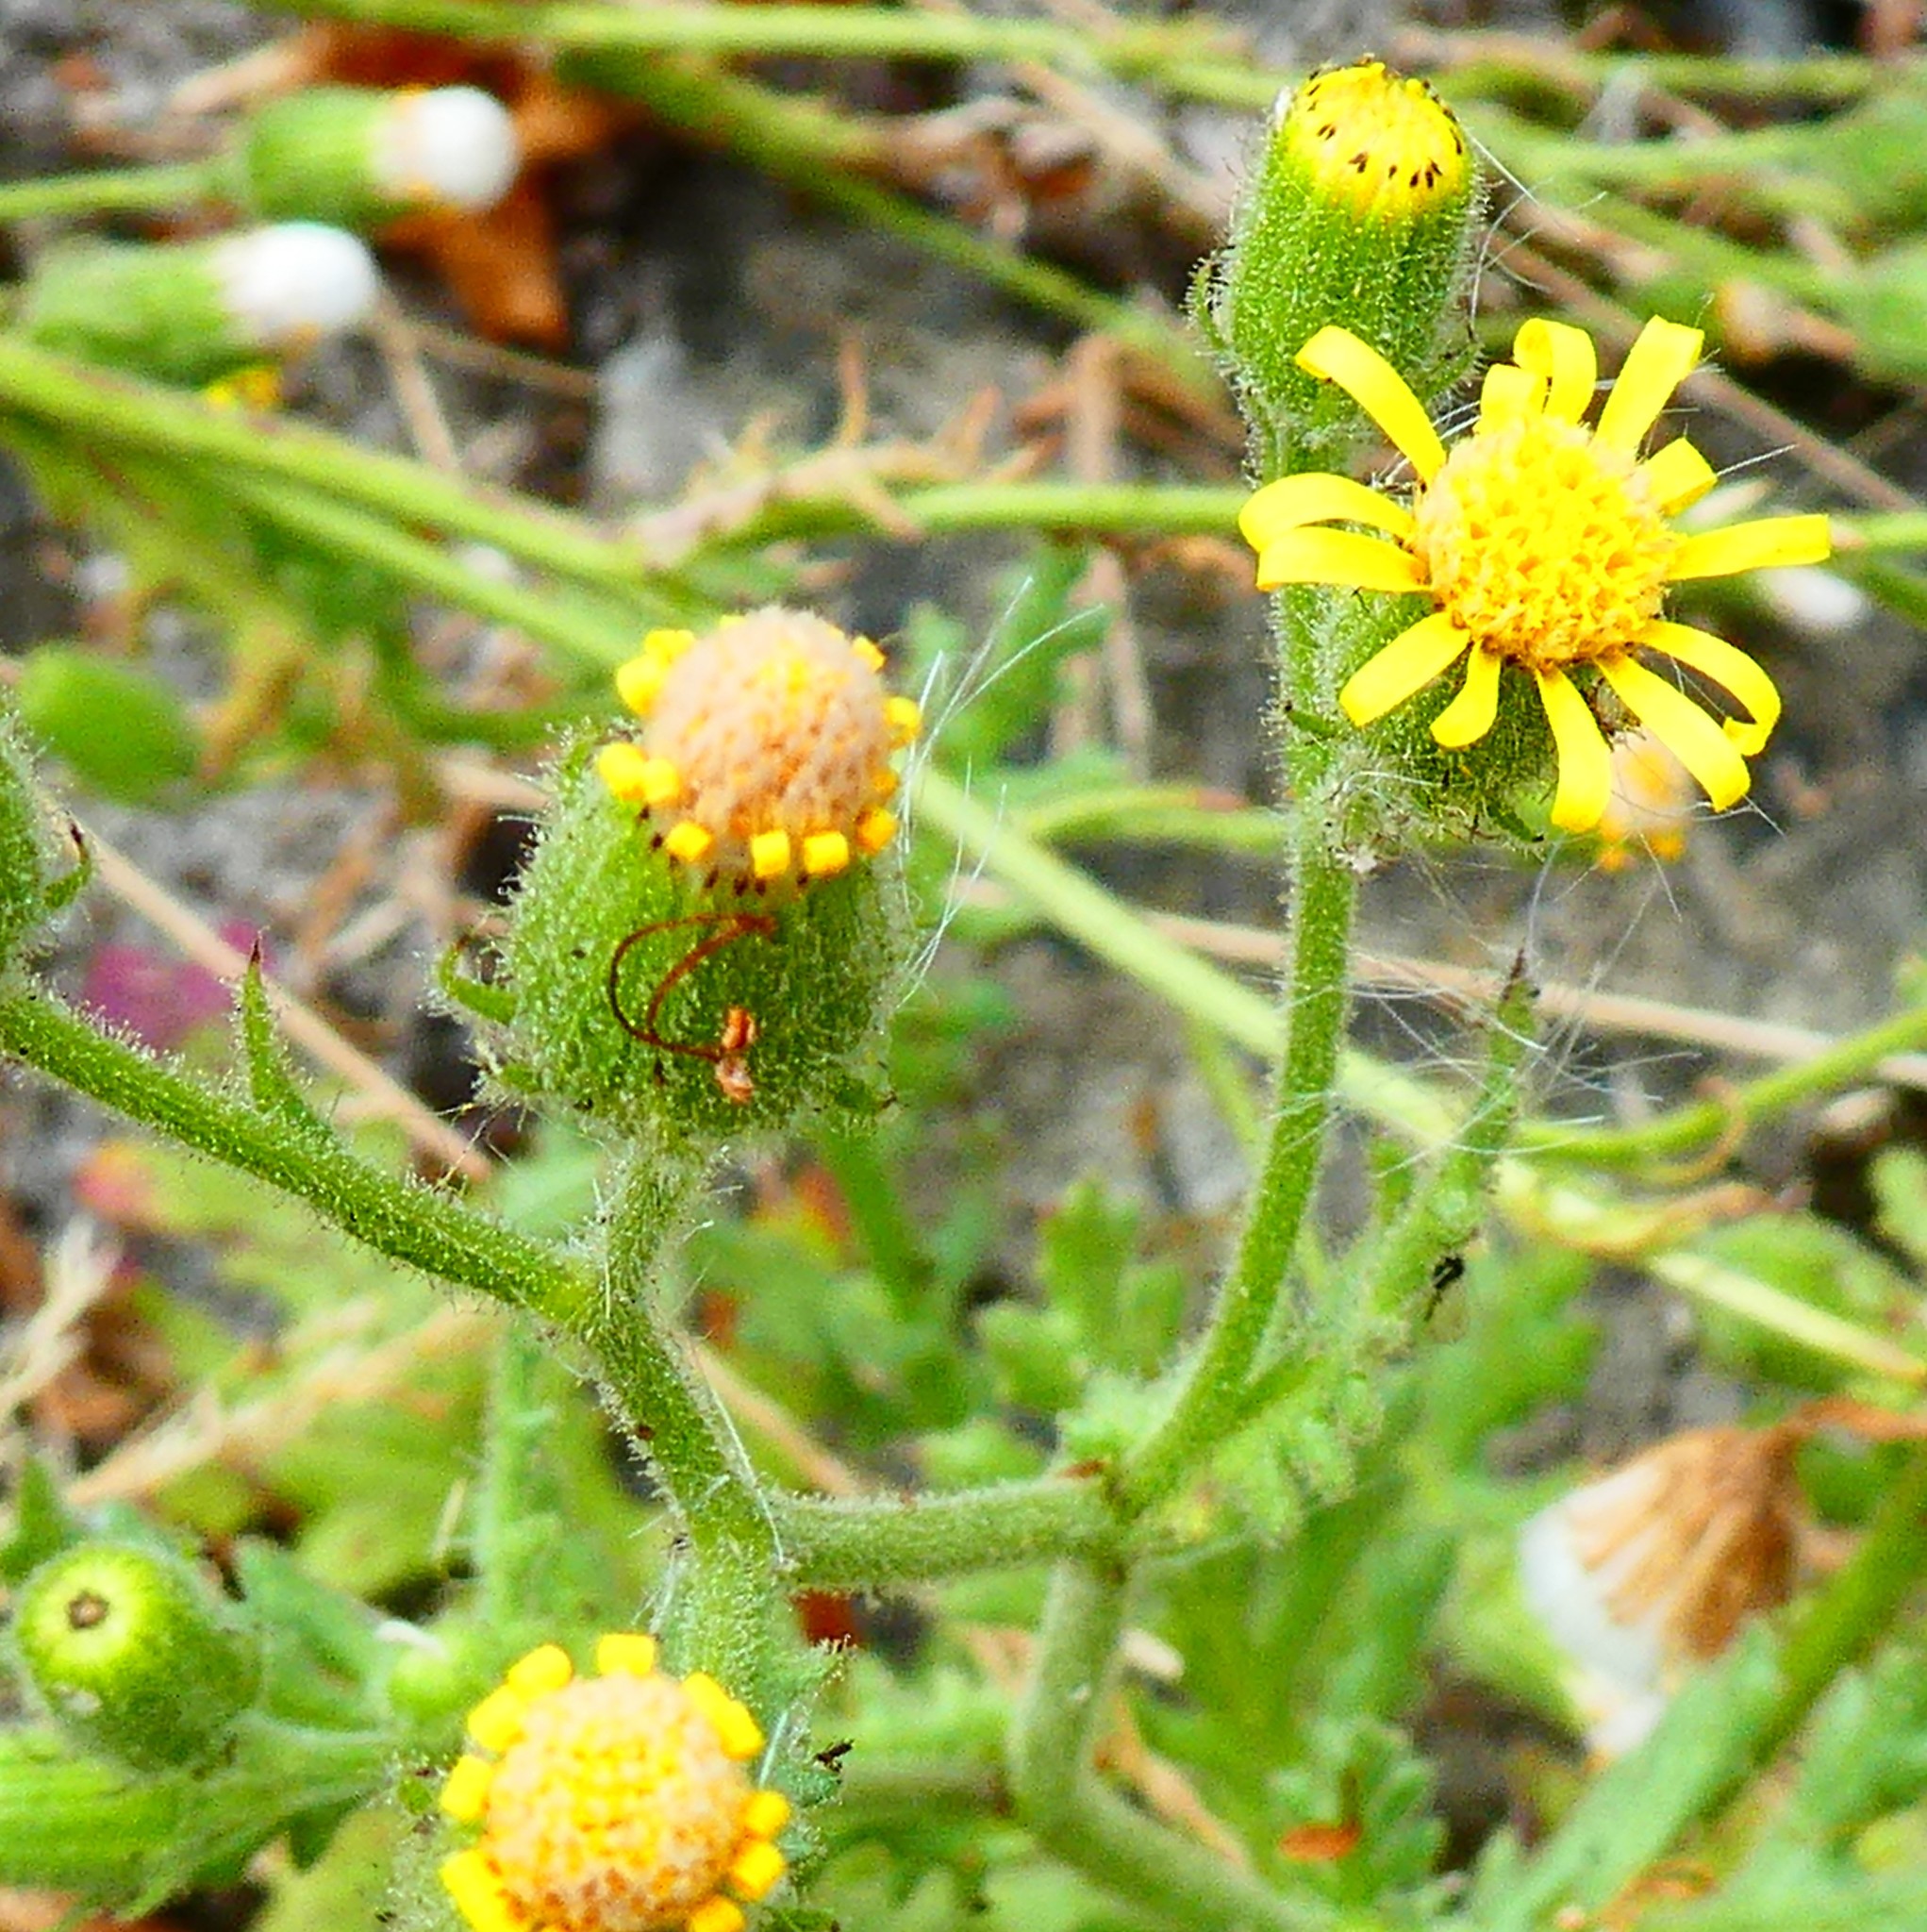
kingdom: Plantae
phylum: Tracheophyta
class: Magnoliopsida
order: Asterales
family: Asteraceae
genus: Senecio
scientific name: Senecio viscosus
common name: Sticky groundsel
